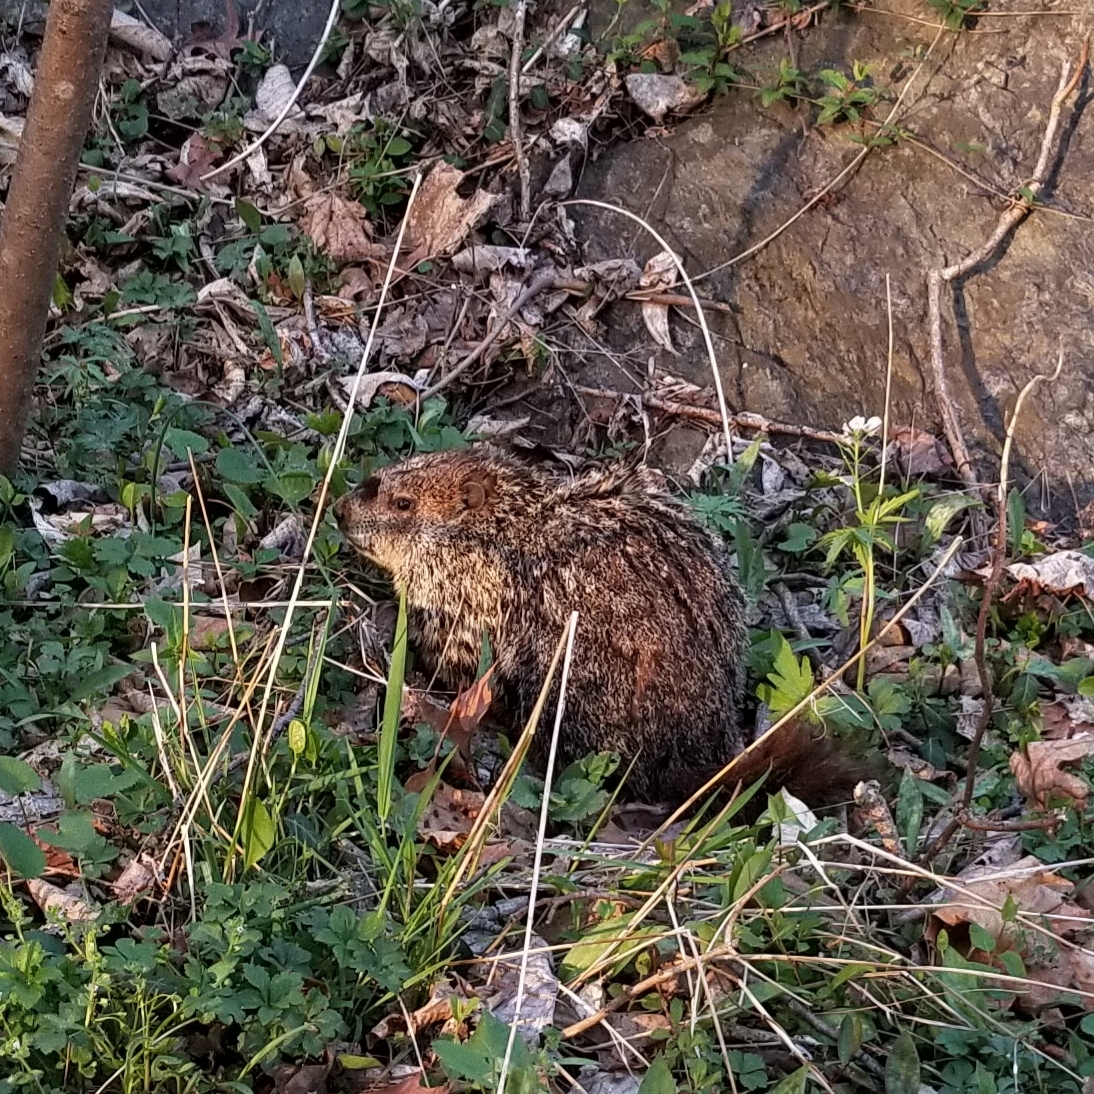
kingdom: Animalia
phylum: Chordata
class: Mammalia
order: Rodentia
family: Sciuridae
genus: Marmota
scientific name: Marmota monax
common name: Groundhog
